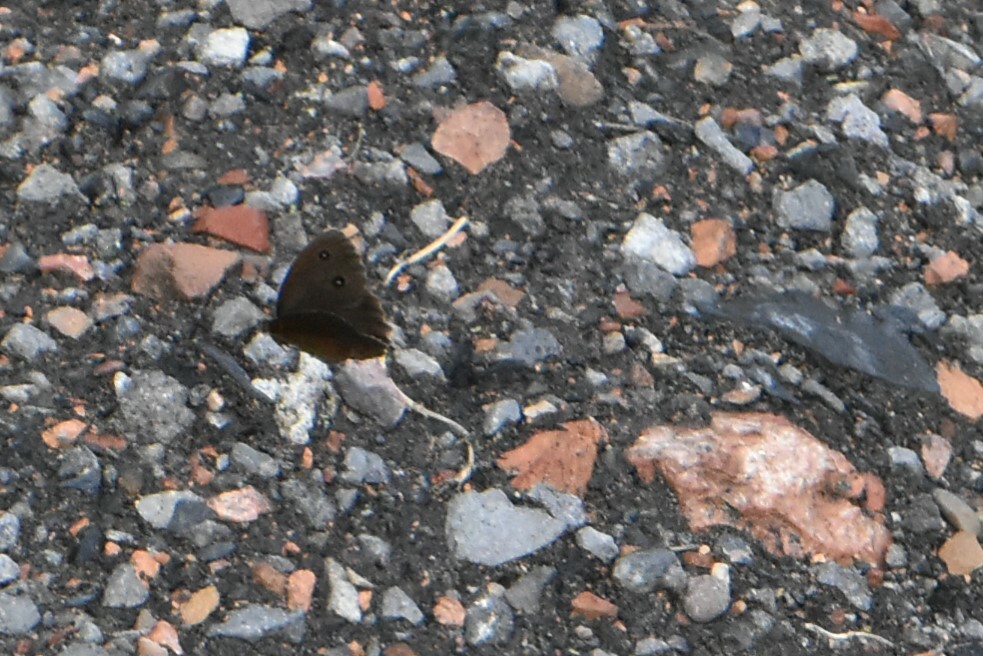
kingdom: Animalia
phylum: Arthropoda
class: Insecta
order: Lepidoptera
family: Nymphalidae
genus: Minois
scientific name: Minois dryas
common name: Dryad
